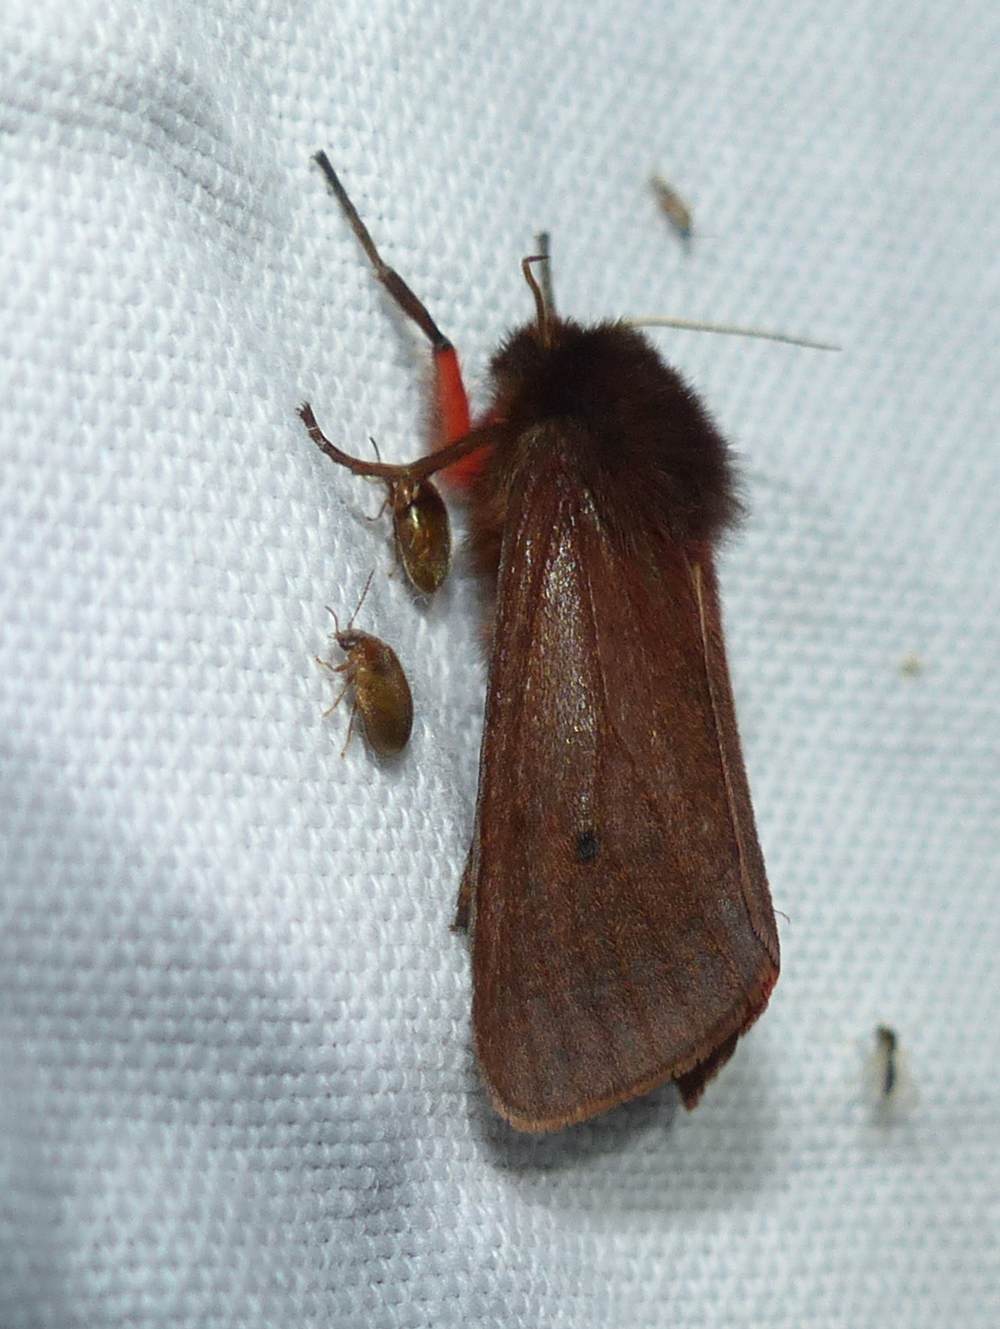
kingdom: Animalia
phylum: Arthropoda
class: Insecta
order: Lepidoptera
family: Erebidae
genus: Phragmatobia
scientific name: Phragmatobia fuliginosa
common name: Ruby tiger
